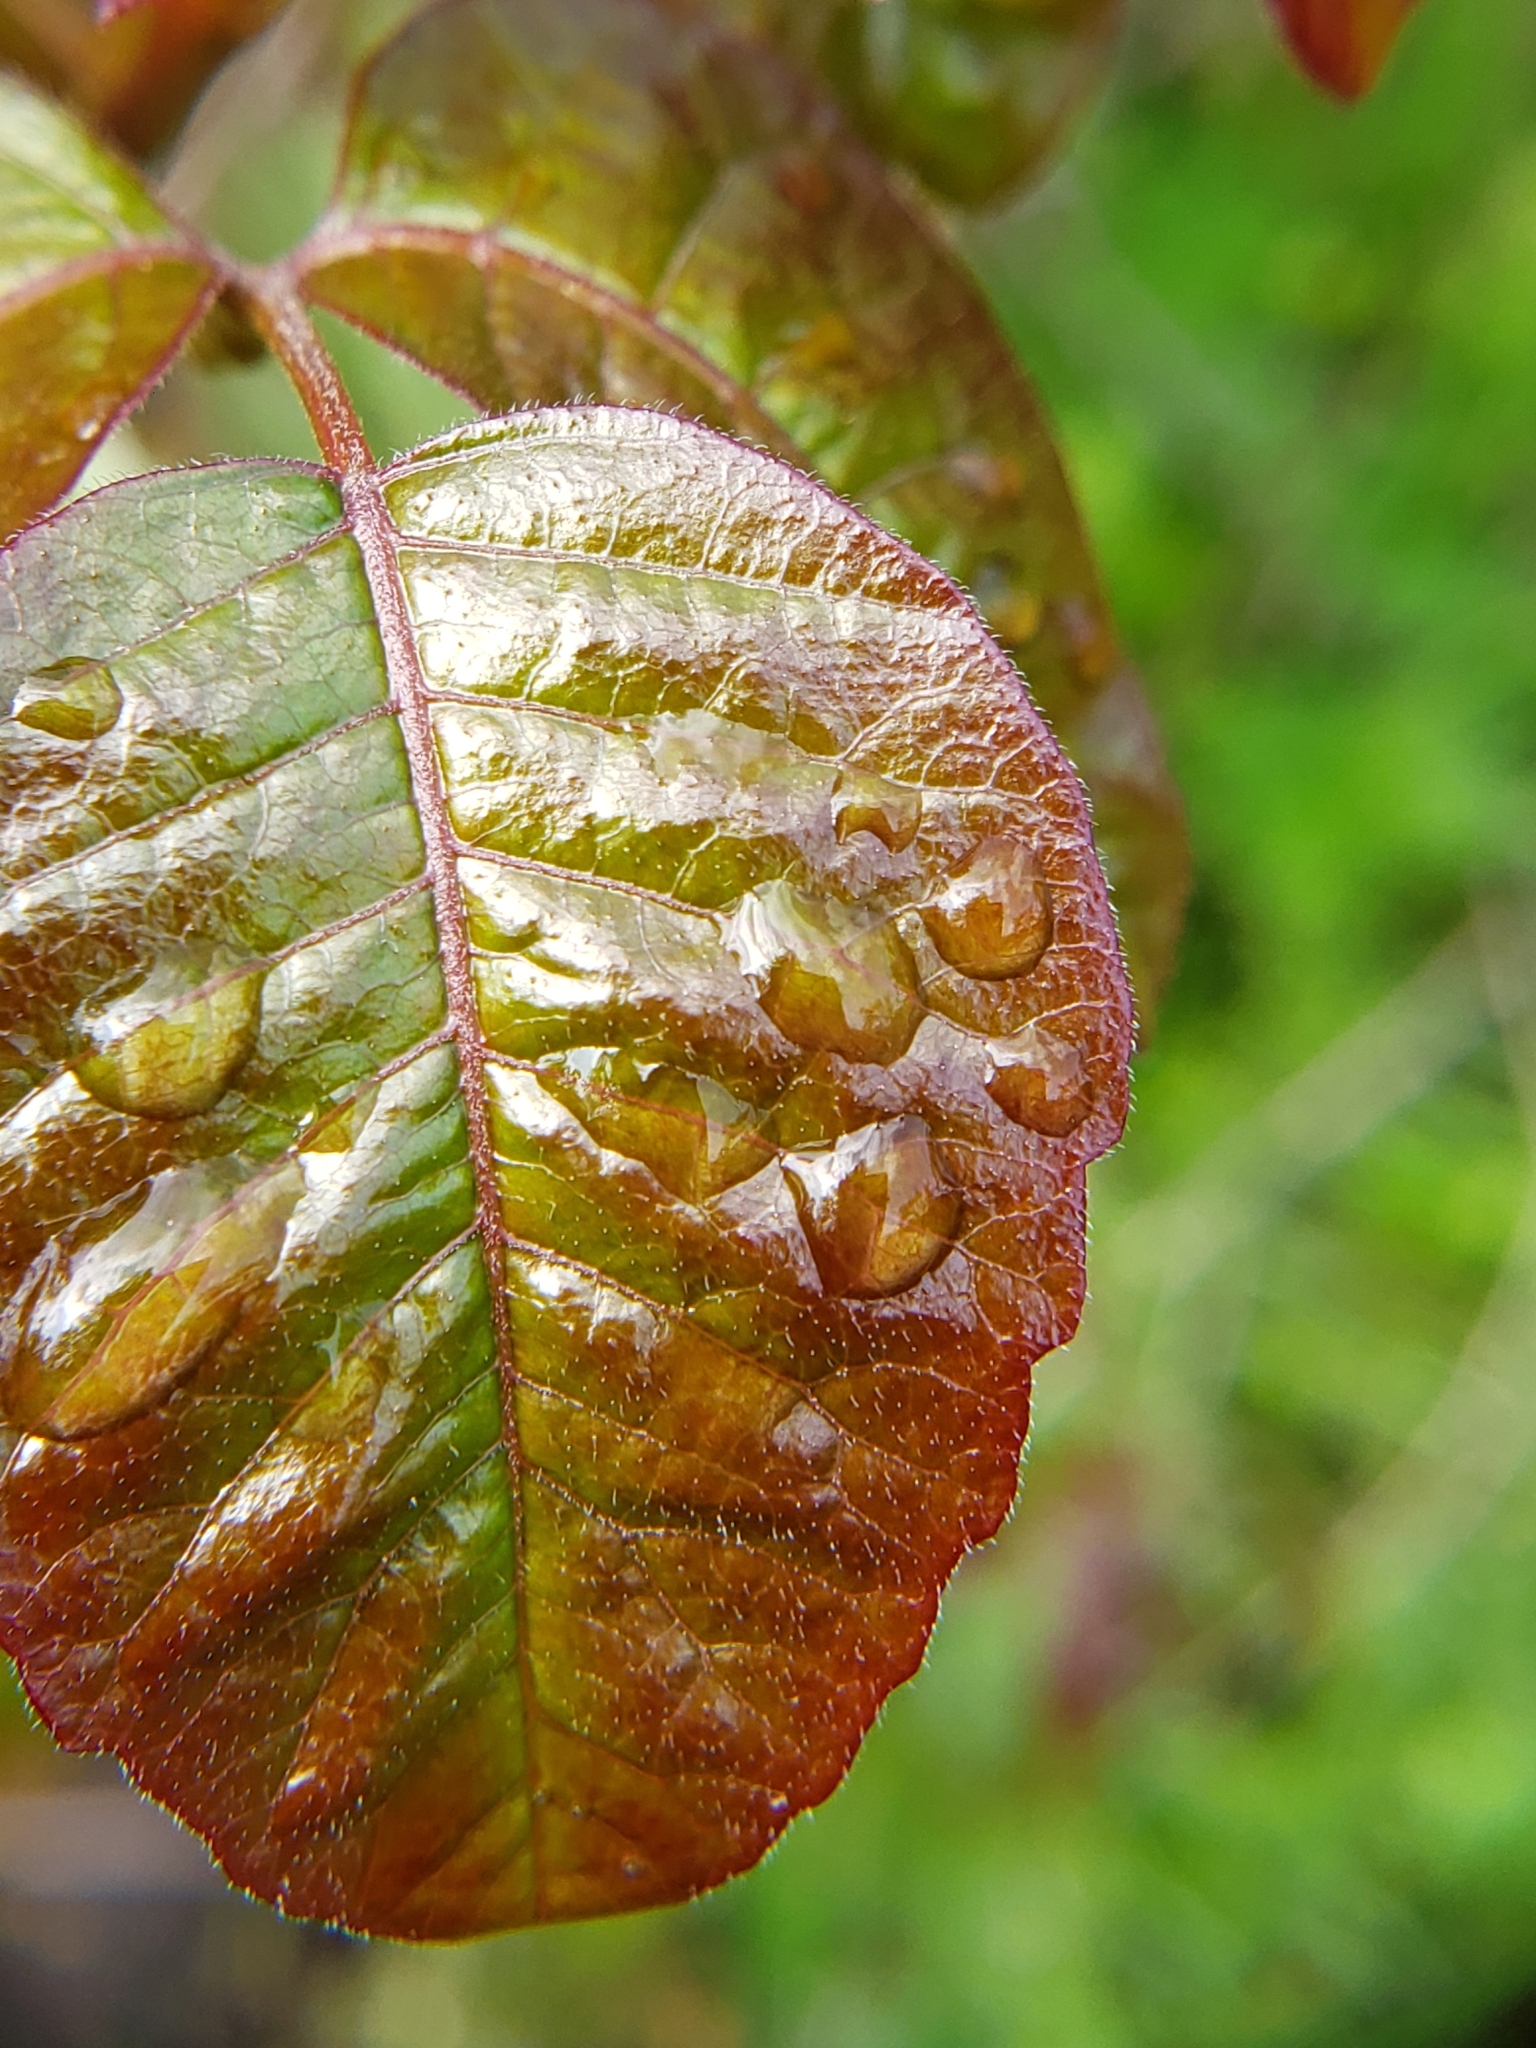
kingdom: Plantae
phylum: Tracheophyta
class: Magnoliopsida
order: Sapindales
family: Anacardiaceae
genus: Toxicodendron
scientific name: Toxicodendron diversilobum
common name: Pacific poison-oak
